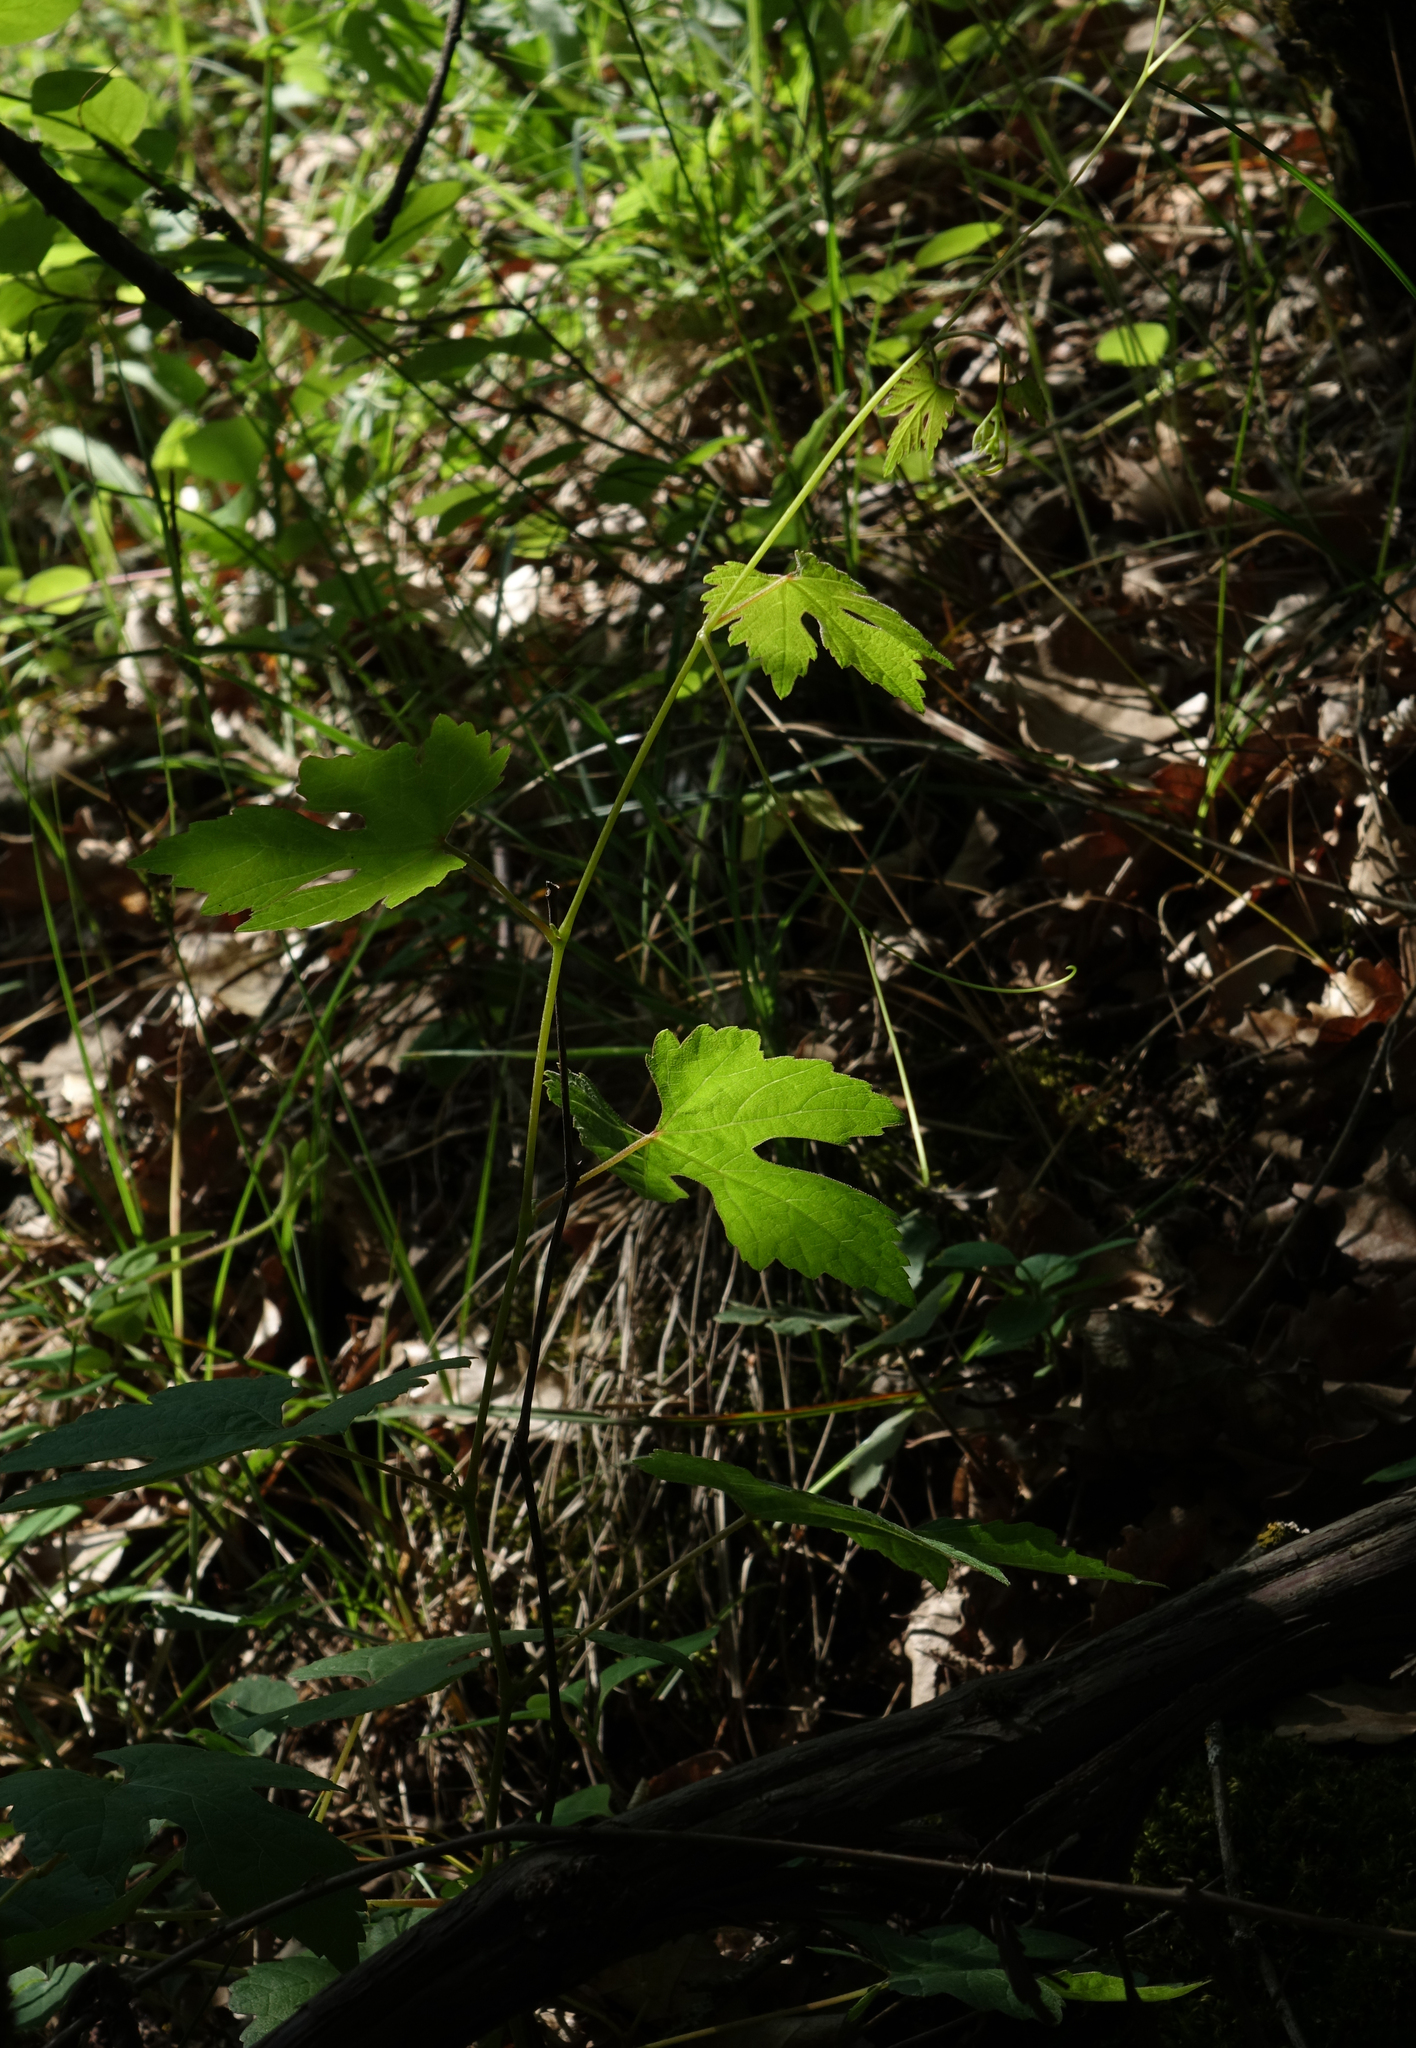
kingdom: Plantae
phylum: Tracheophyta
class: Magnoliopsida
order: Vitales
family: Vitaceae
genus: Vitis
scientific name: Vitis gmelinii
